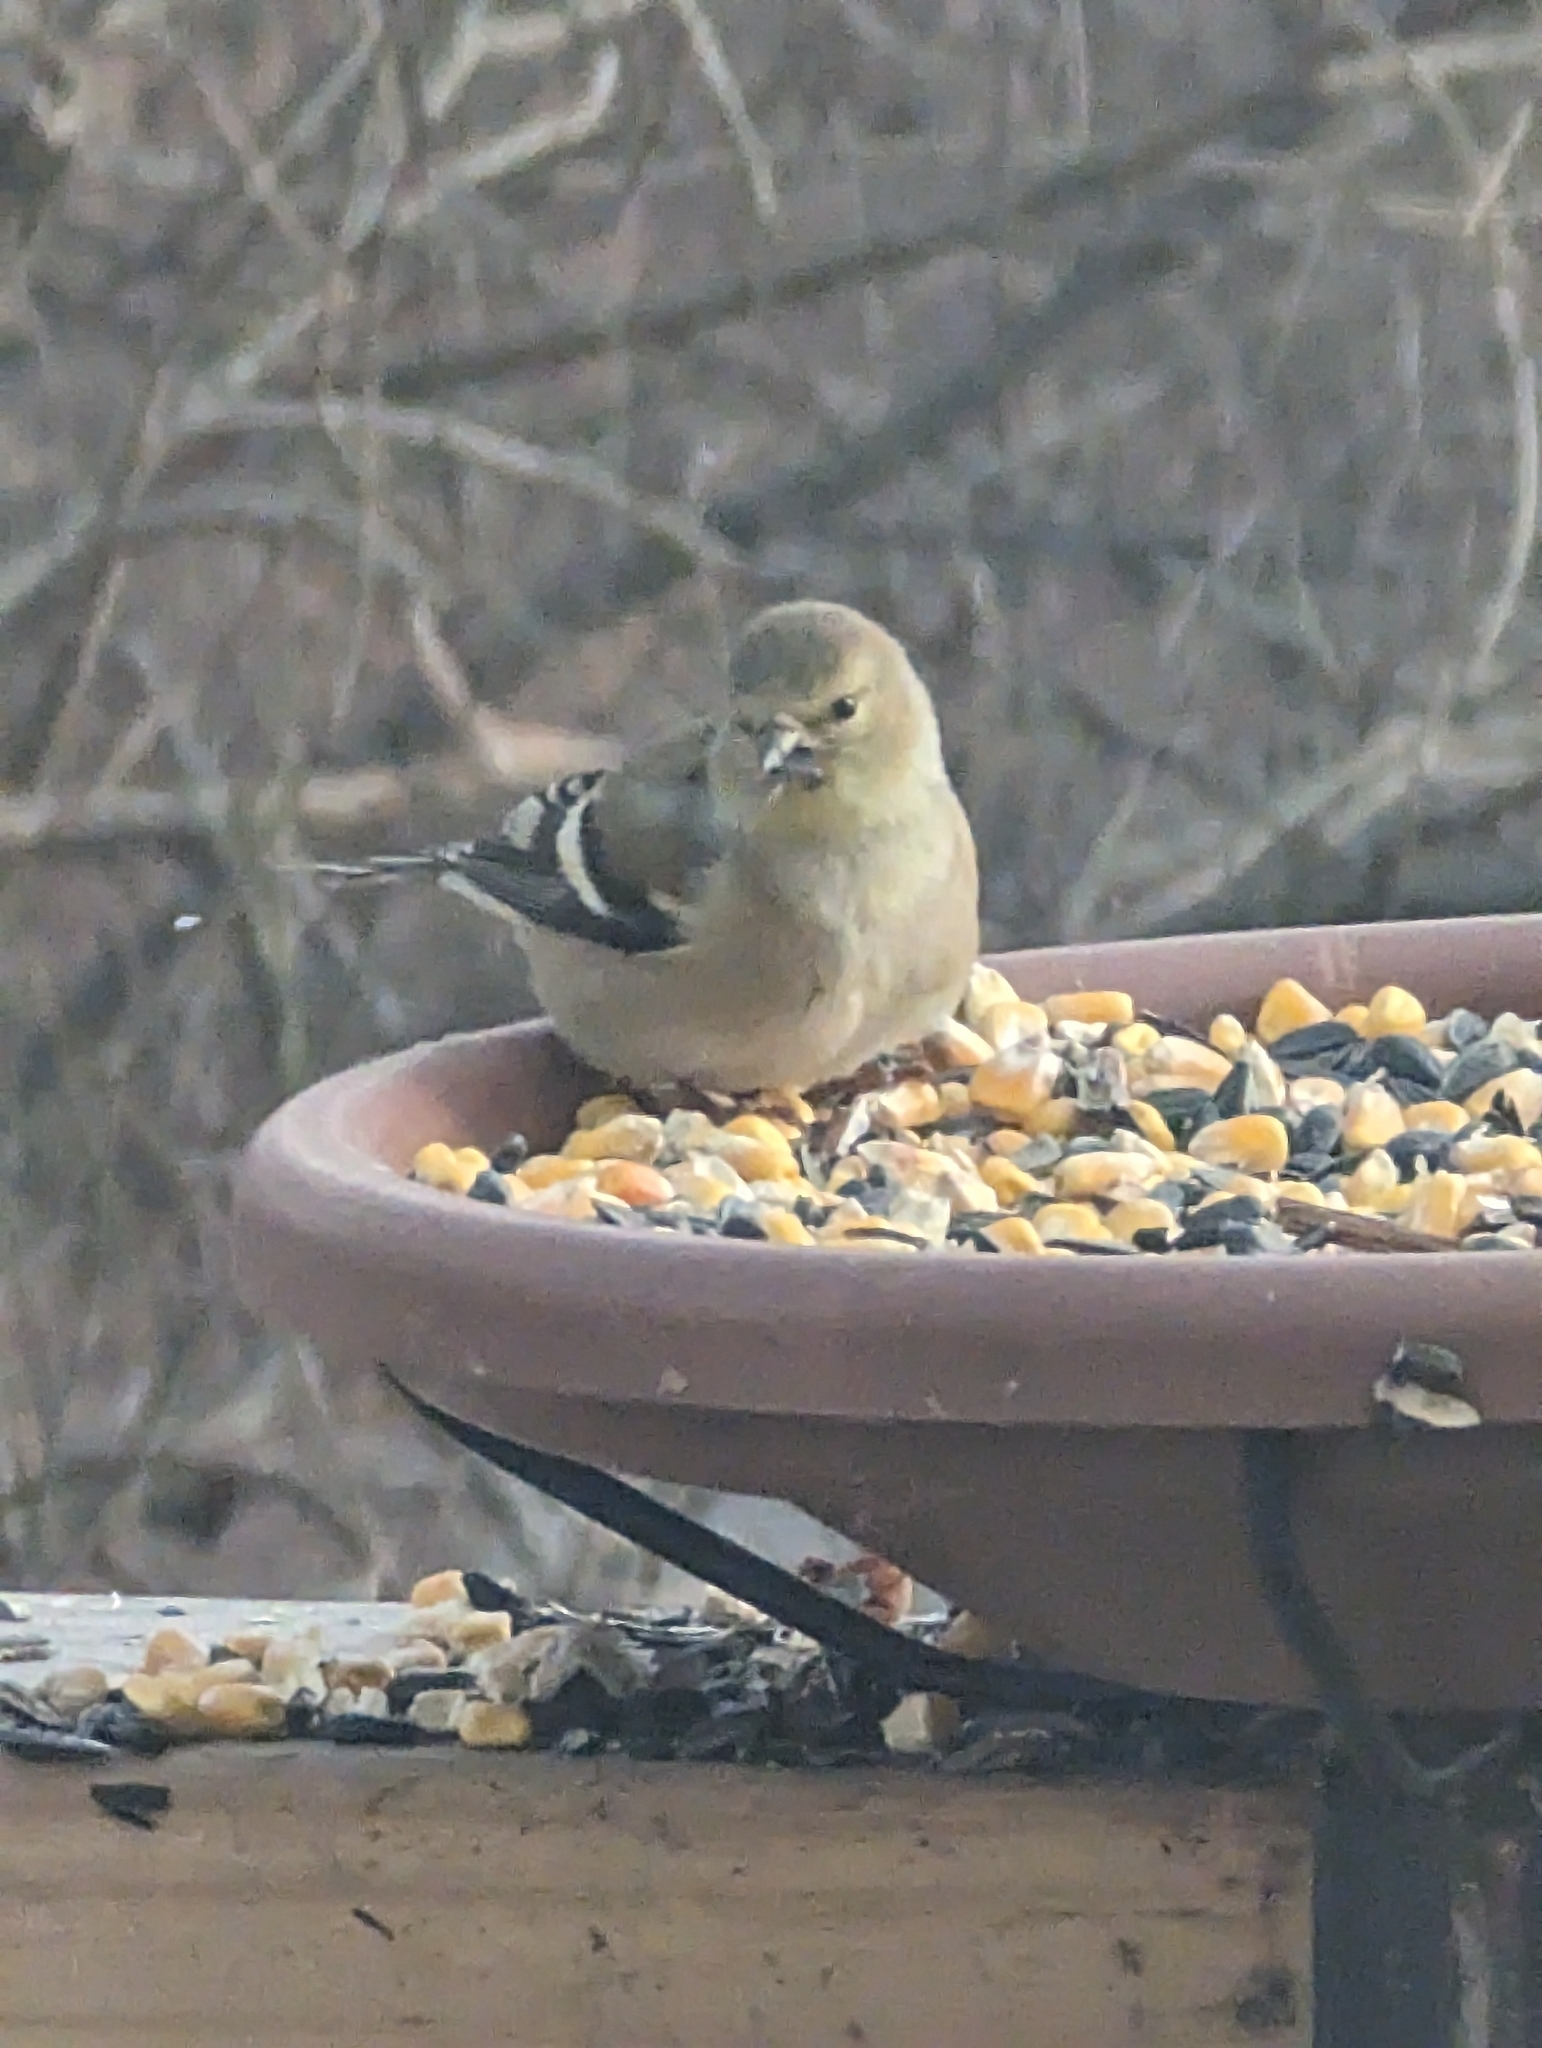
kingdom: Animalia
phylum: Chordata
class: Aves
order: Passeriformes
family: Fringillidae
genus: Spinus
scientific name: Spinus tristis
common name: American goldfinch
